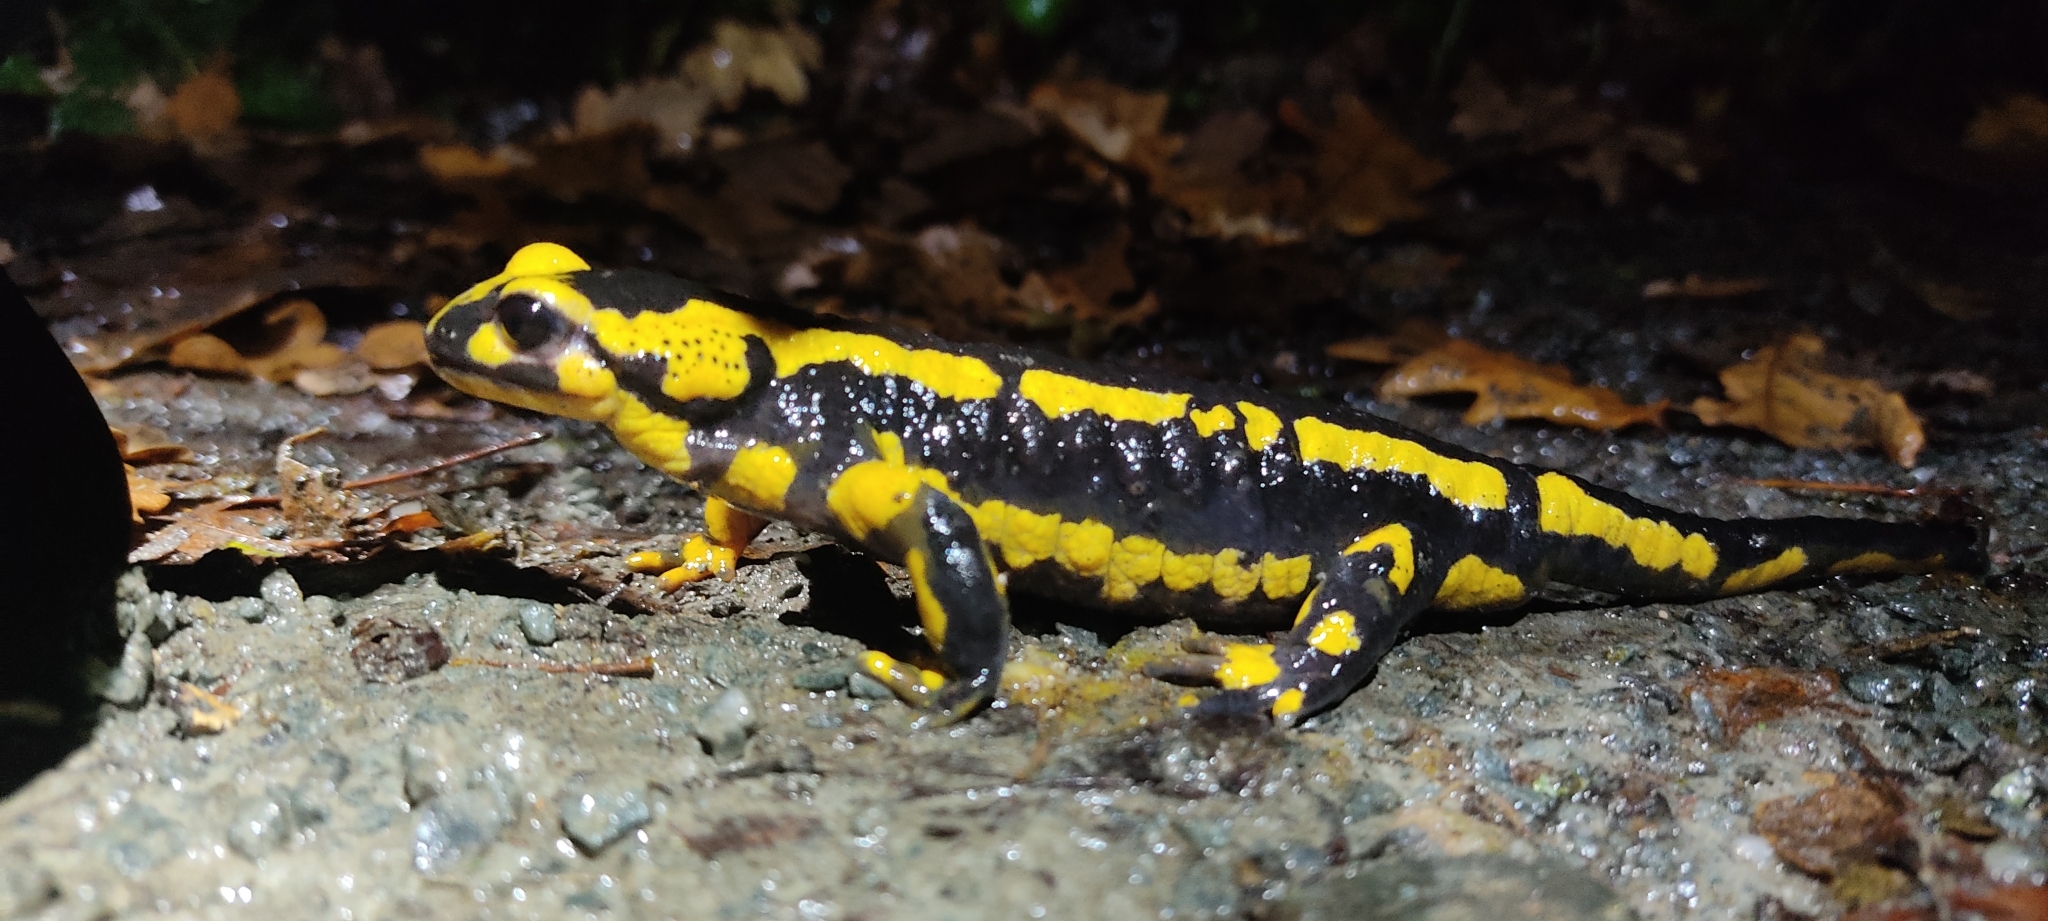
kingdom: Animalia
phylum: Chordata
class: Amphibia
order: Caudata
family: Salamandridae
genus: Salamandra
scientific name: Salamandra salamandra
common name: Fire salamander
